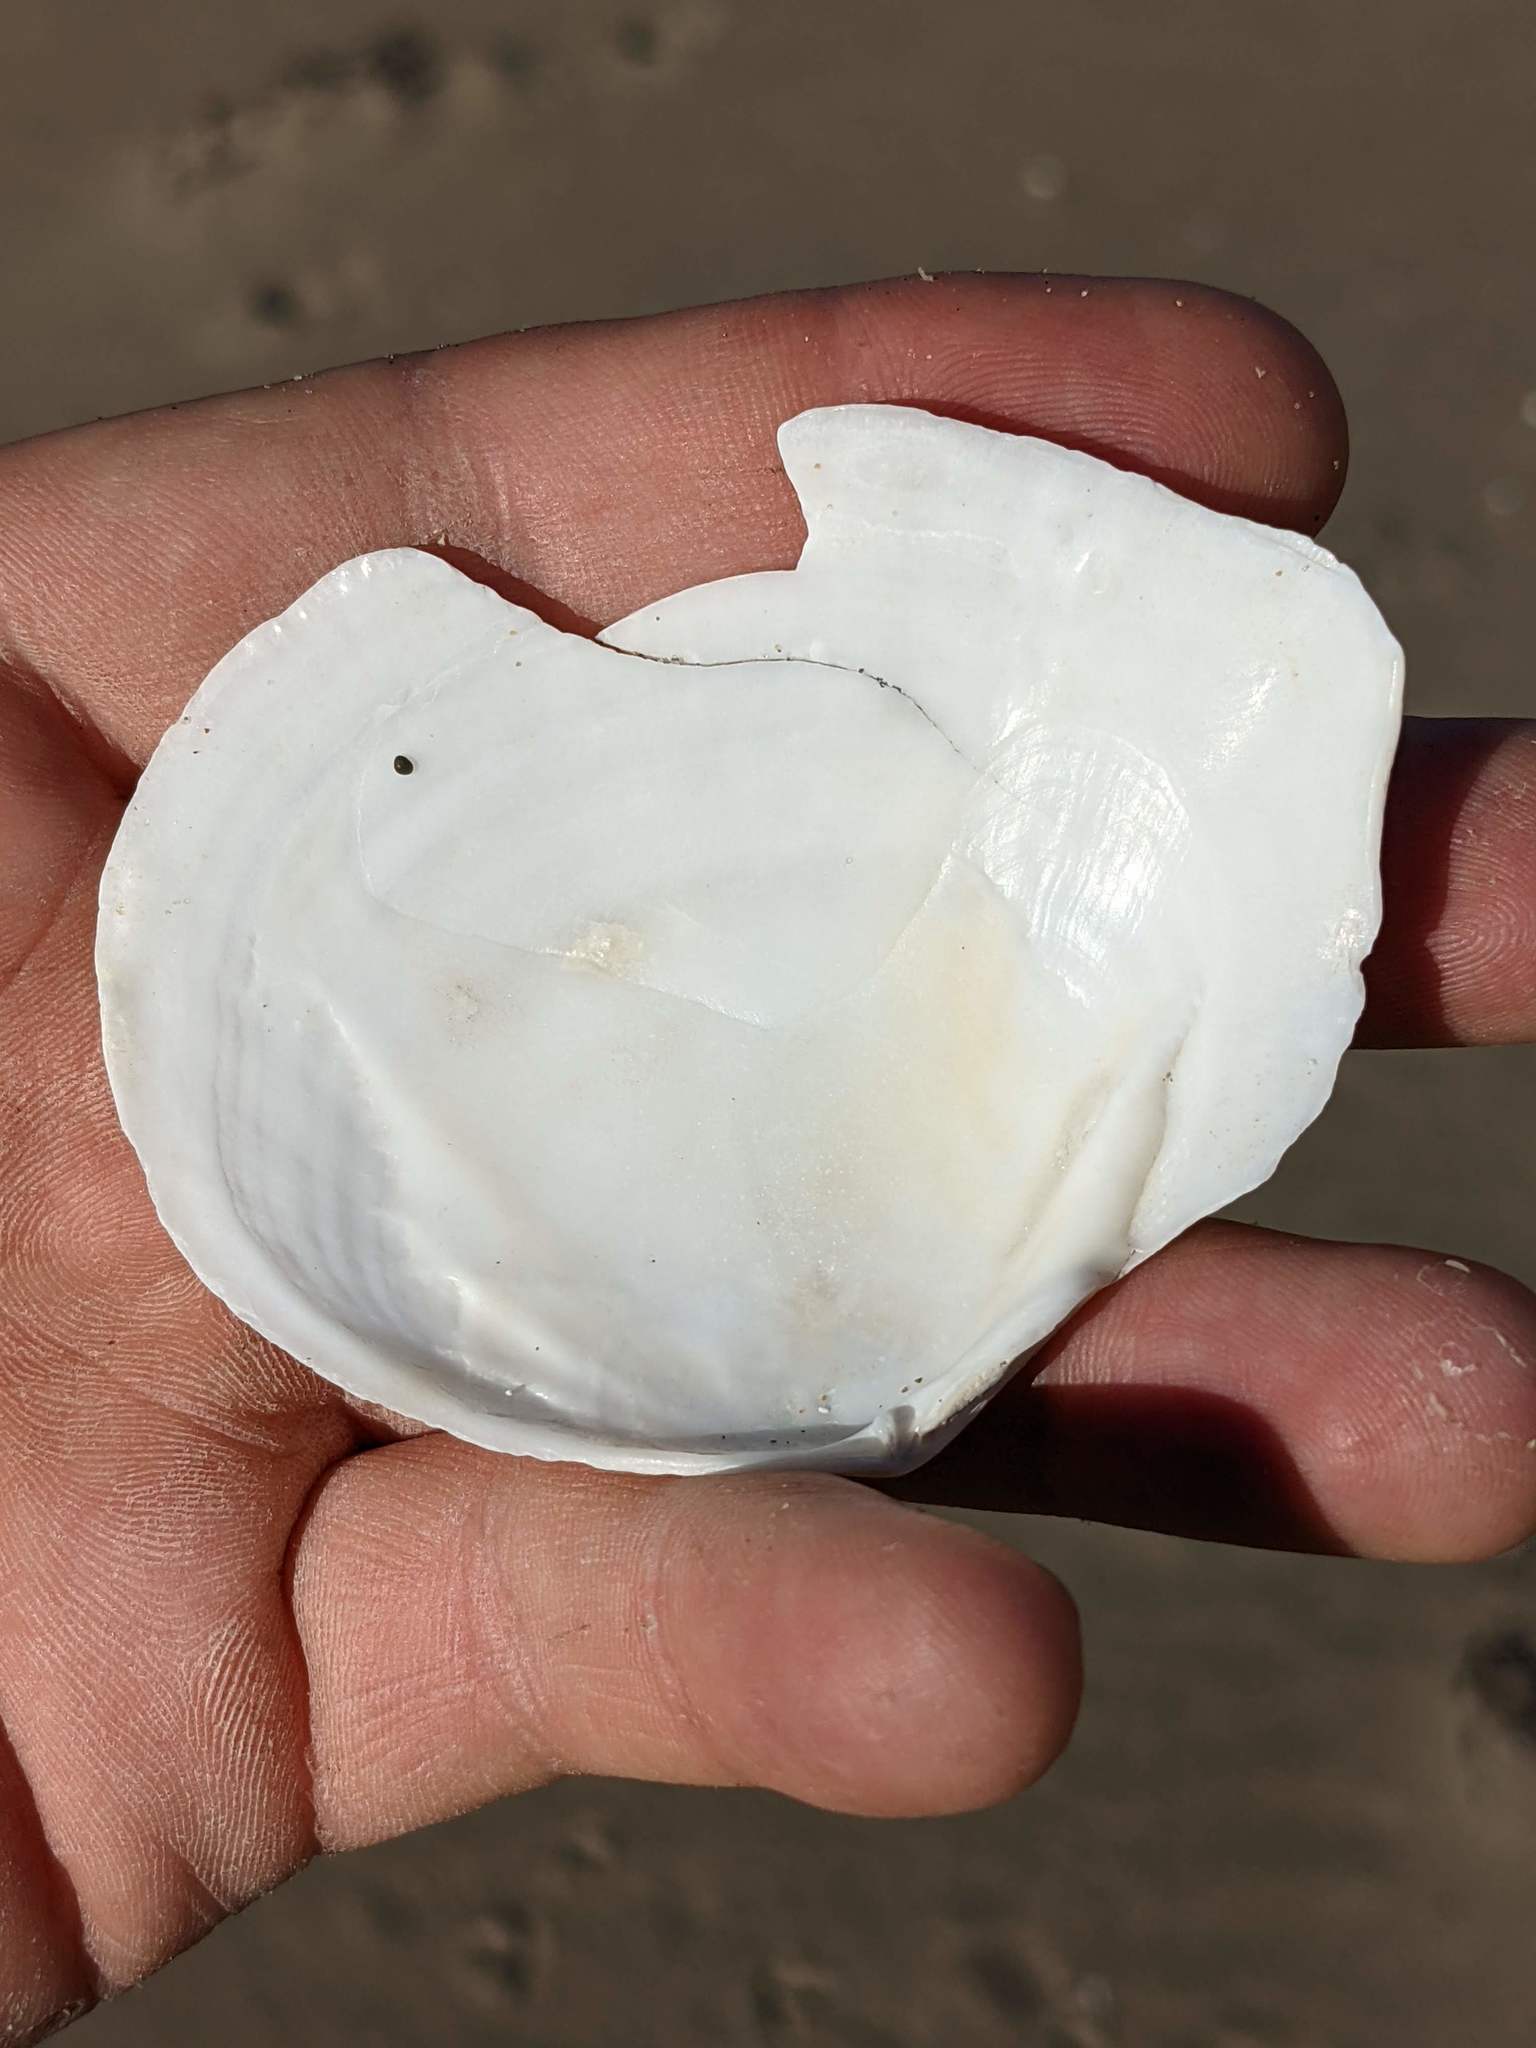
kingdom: Animalia
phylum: Mollusca
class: Bivalvia
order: Cardiida
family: Tellinidae
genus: Rexithaerus
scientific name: Rexithaerus secta
